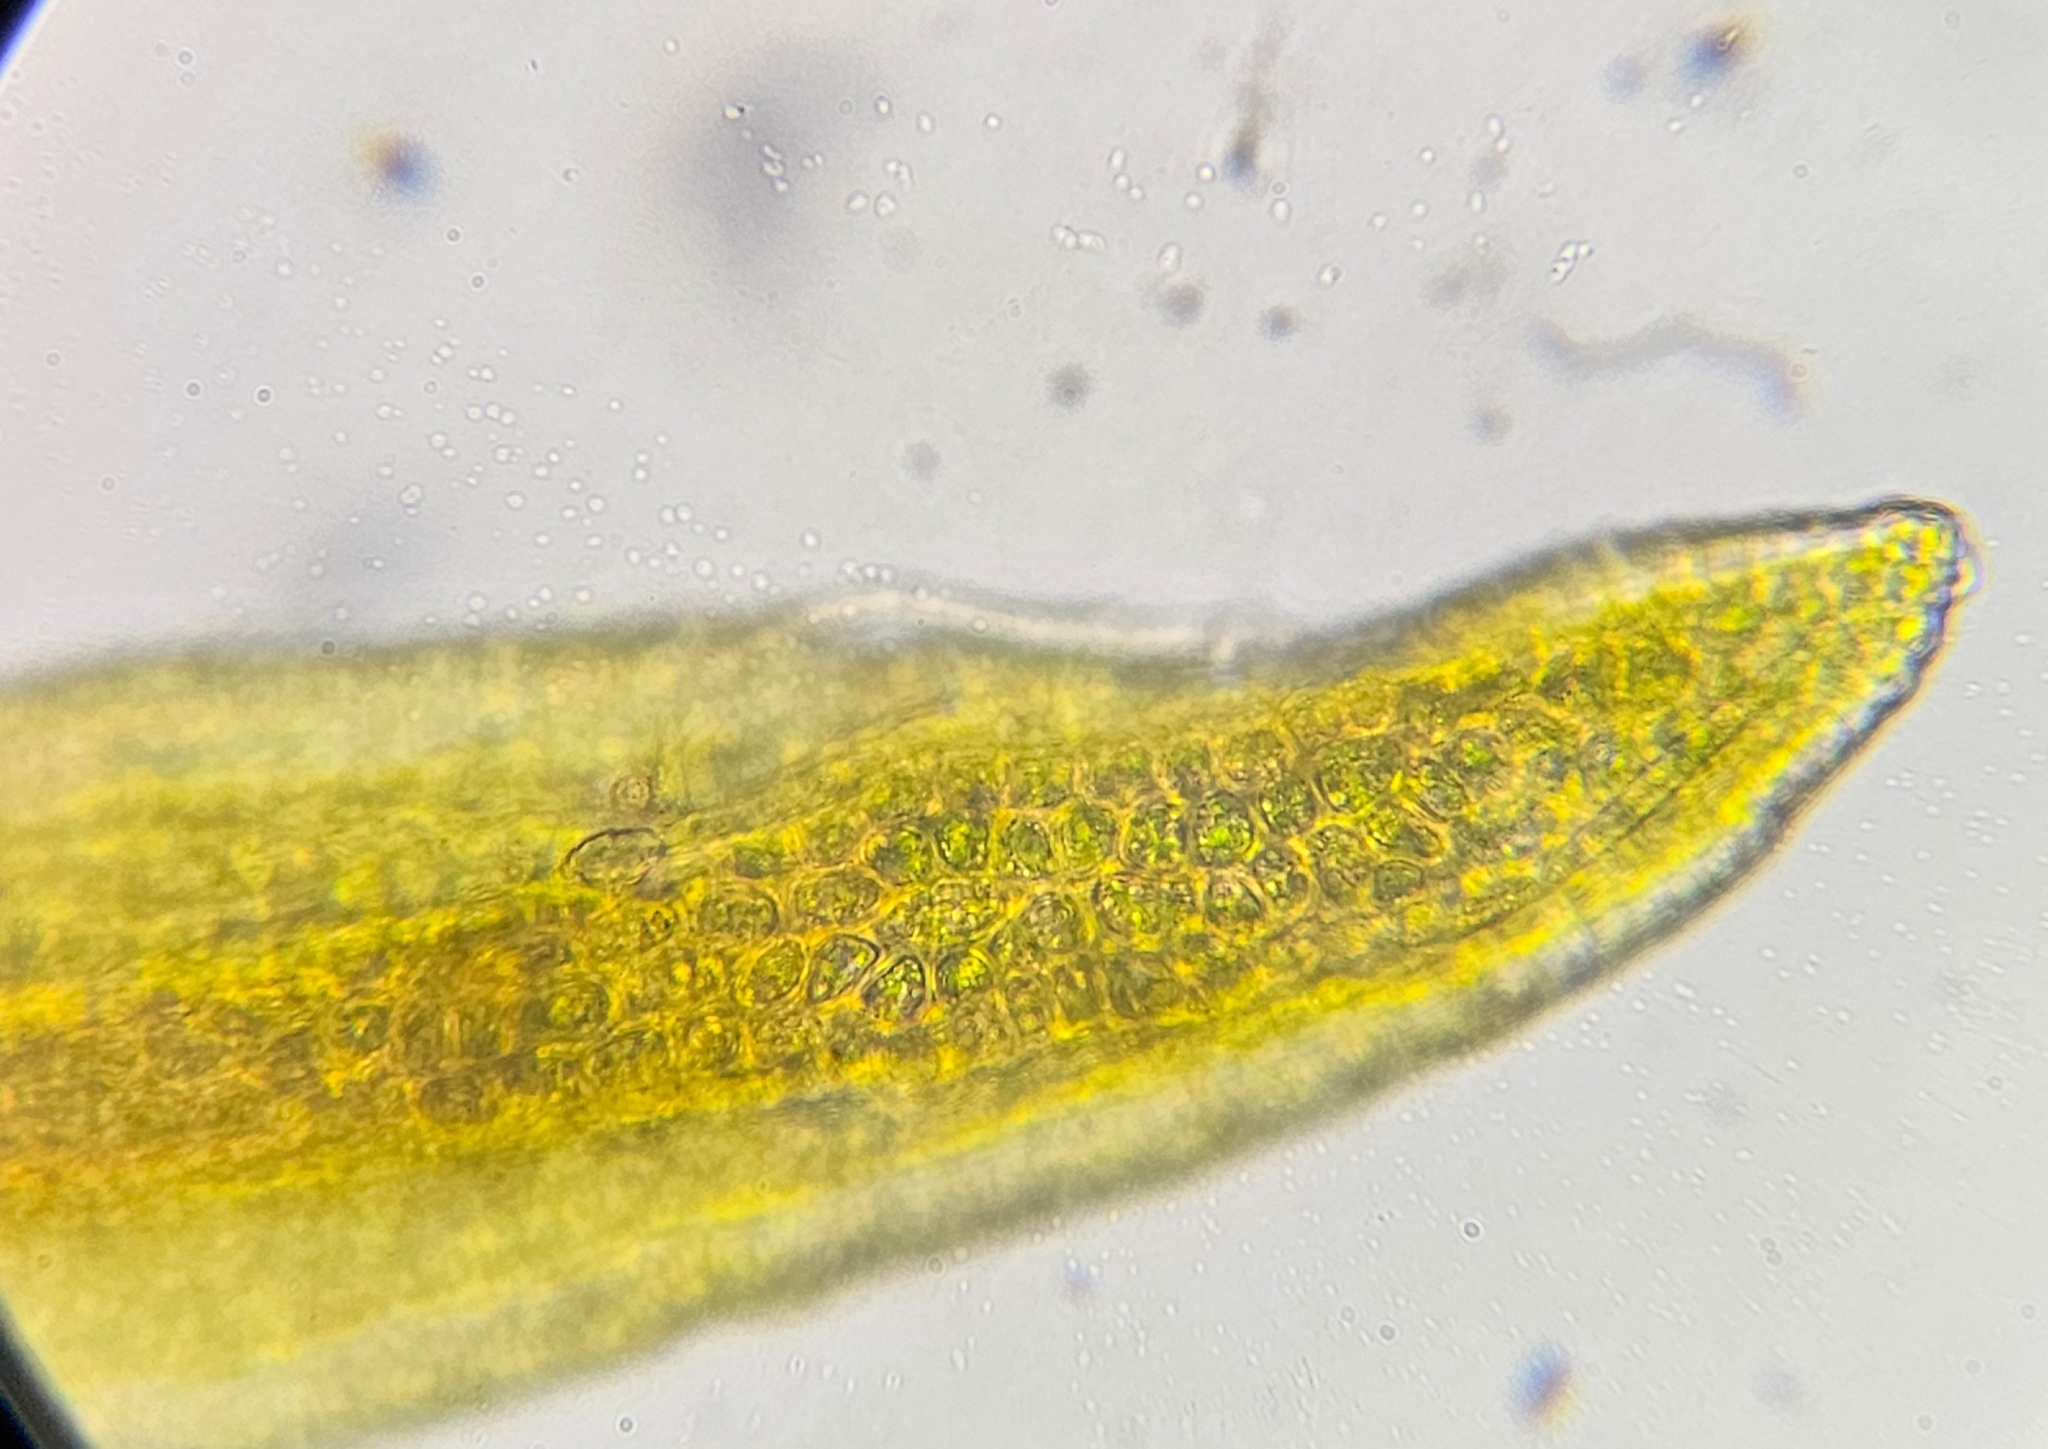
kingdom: Plantae
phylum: Bryophyta
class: Bryopsida
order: Pottiales
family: Pottiaceae
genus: Vinealobryum
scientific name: Vinealobryum vineale
